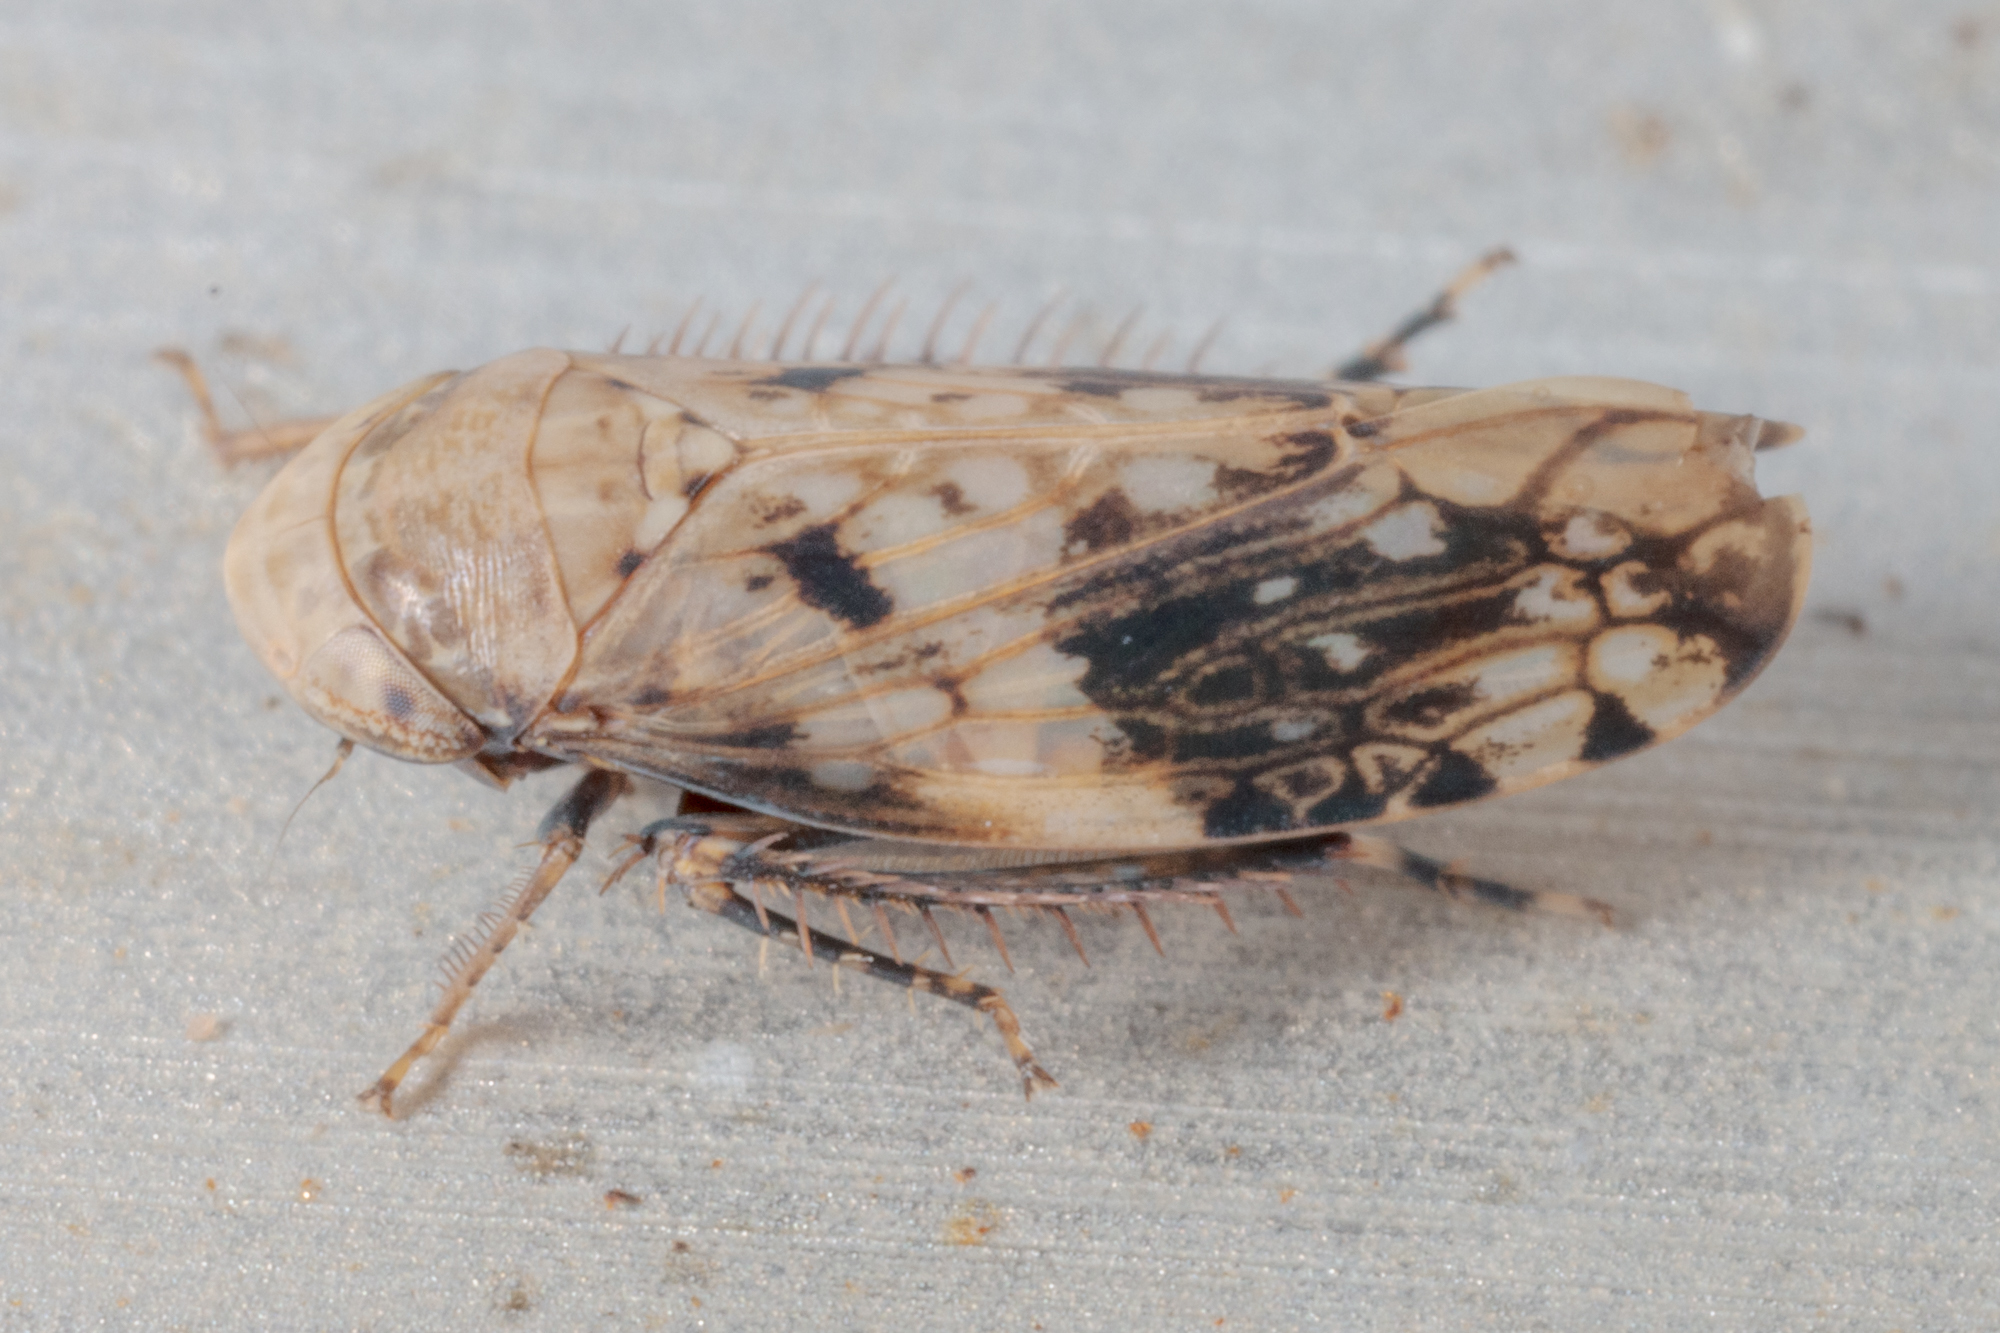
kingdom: Animalia
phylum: Arthropoda
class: Insecta
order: Hemiptera
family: Cicadellidae
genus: Menosoma
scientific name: Menosoma cinctum
